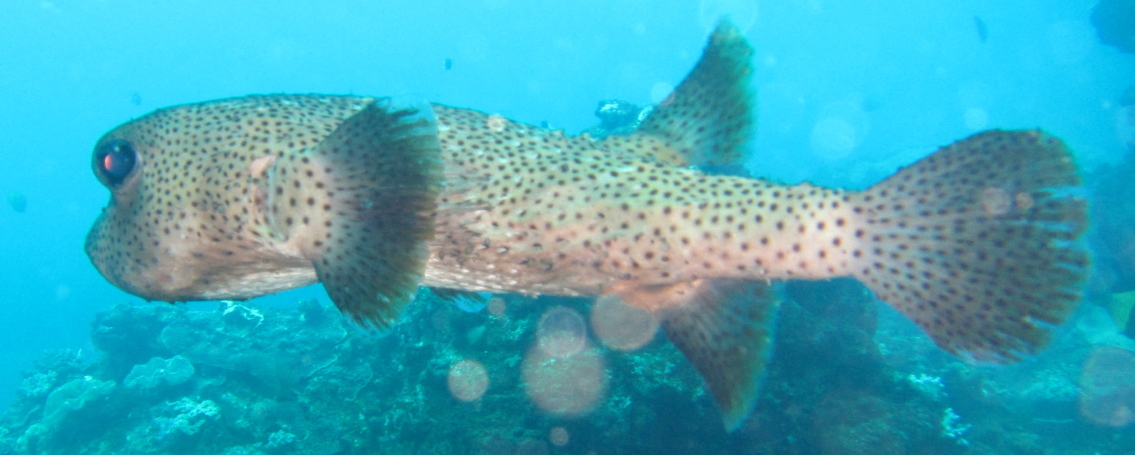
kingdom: Animalia
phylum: Chordata
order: Tetraodontiformes
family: Diodontidae
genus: Diodon
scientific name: Diodon hystrix
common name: Giant porcupinefish
